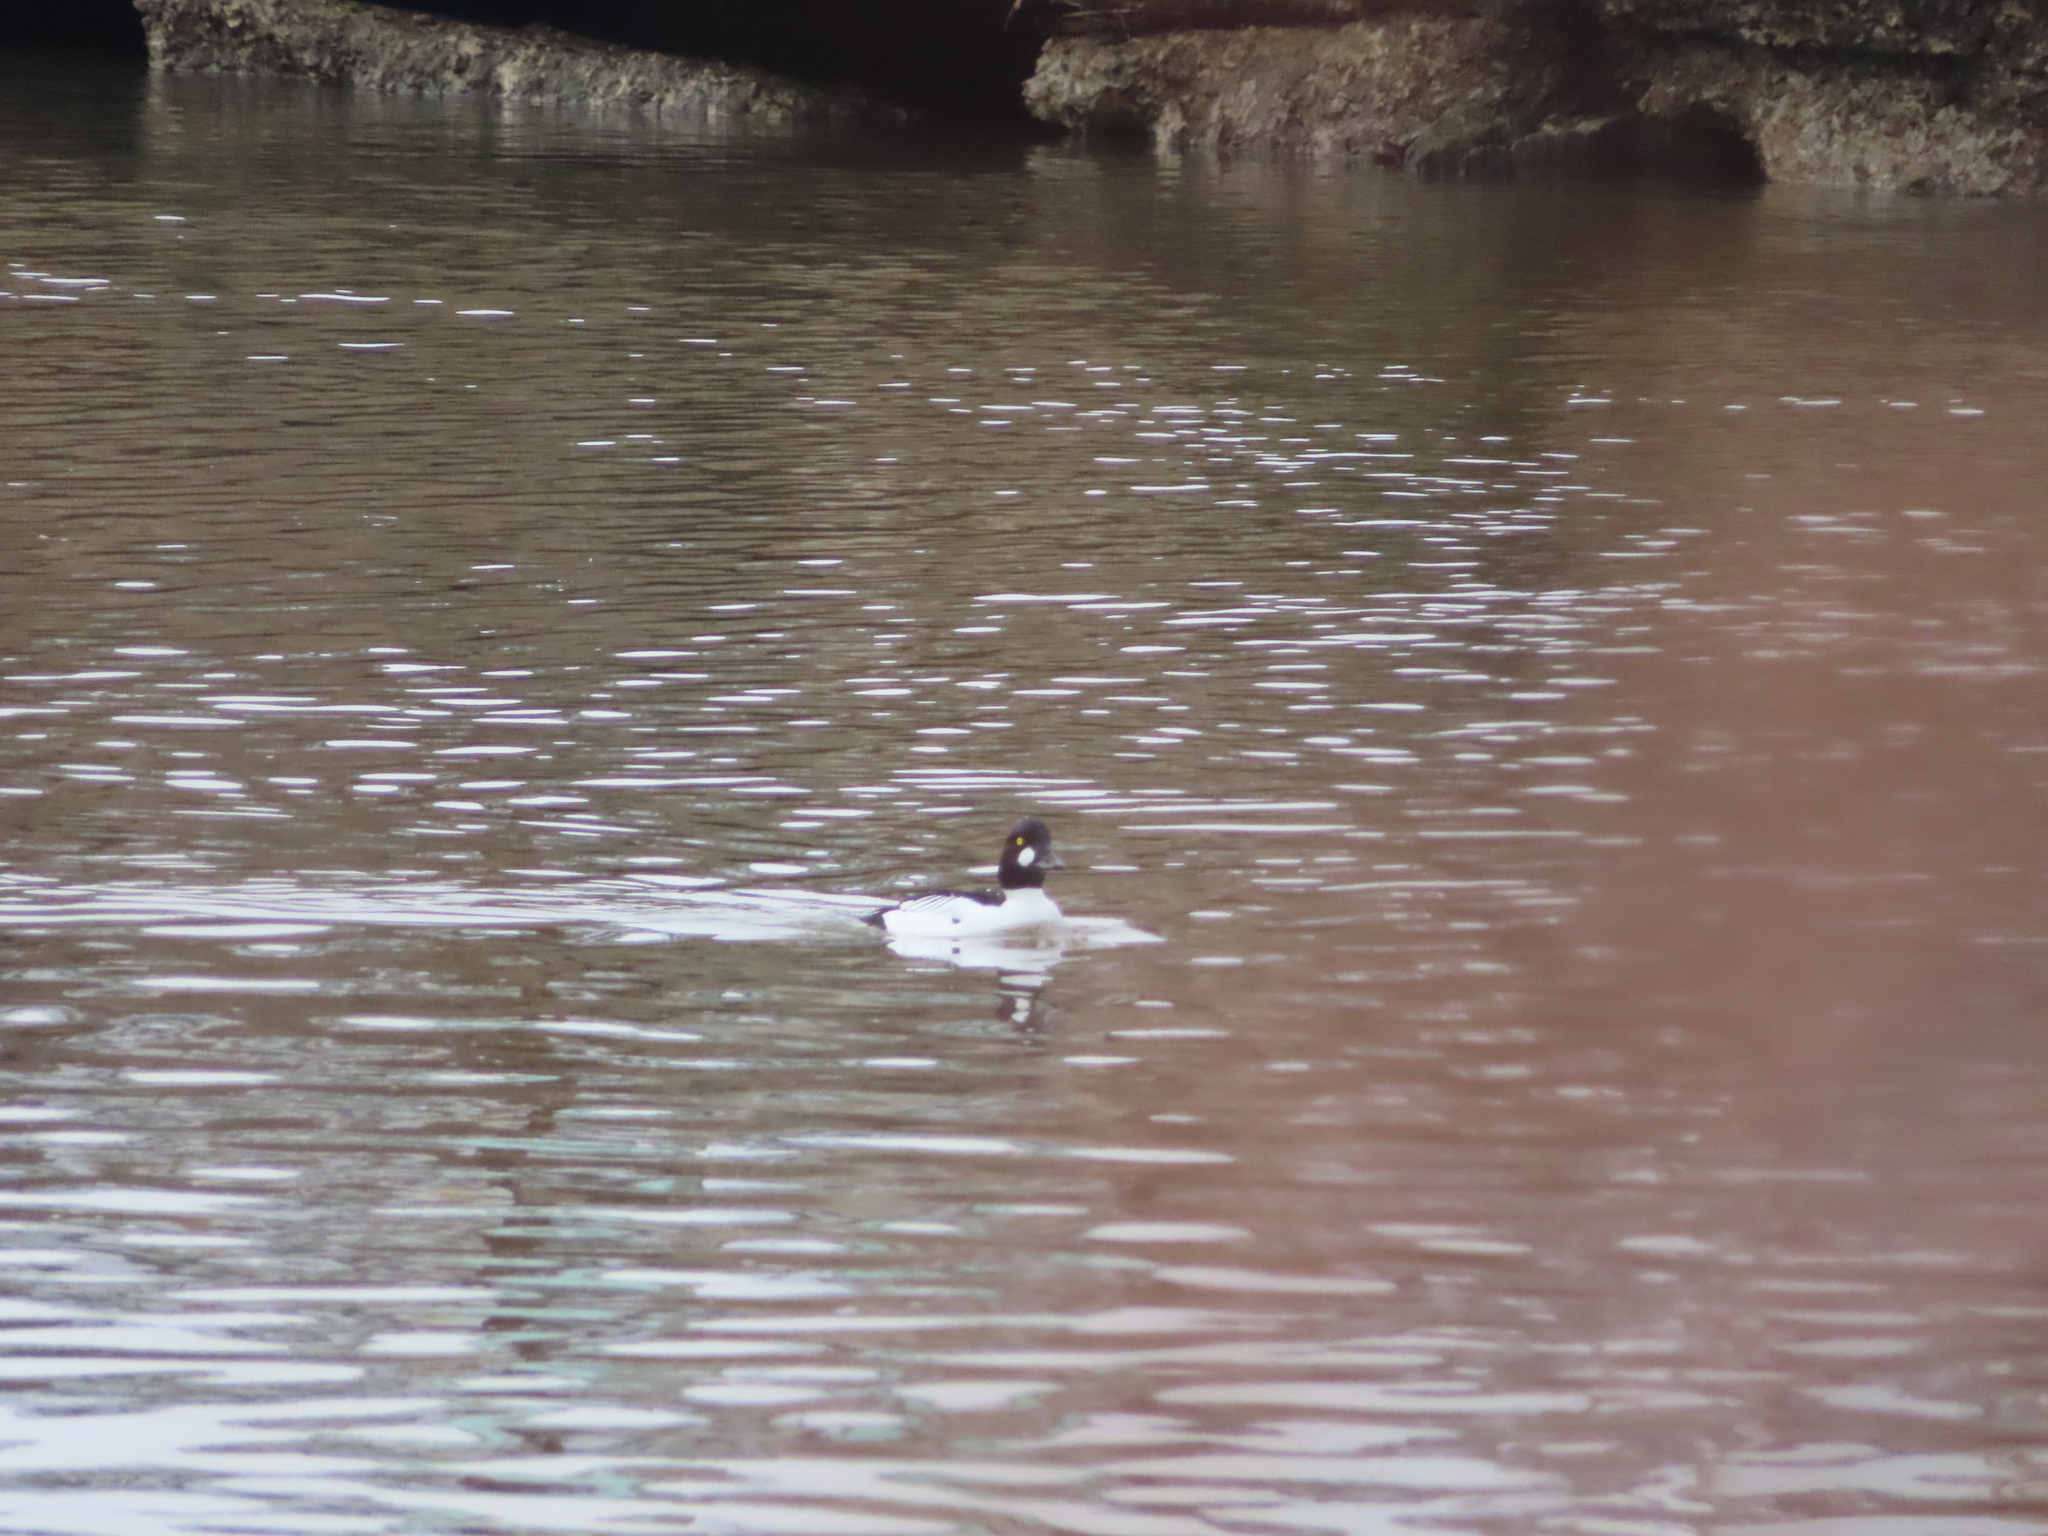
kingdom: Animalia
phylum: Chordata
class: Aves
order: Anseriformes
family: Anatidae
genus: Bucephala
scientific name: Bucephala clangula
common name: Common goldeneye
